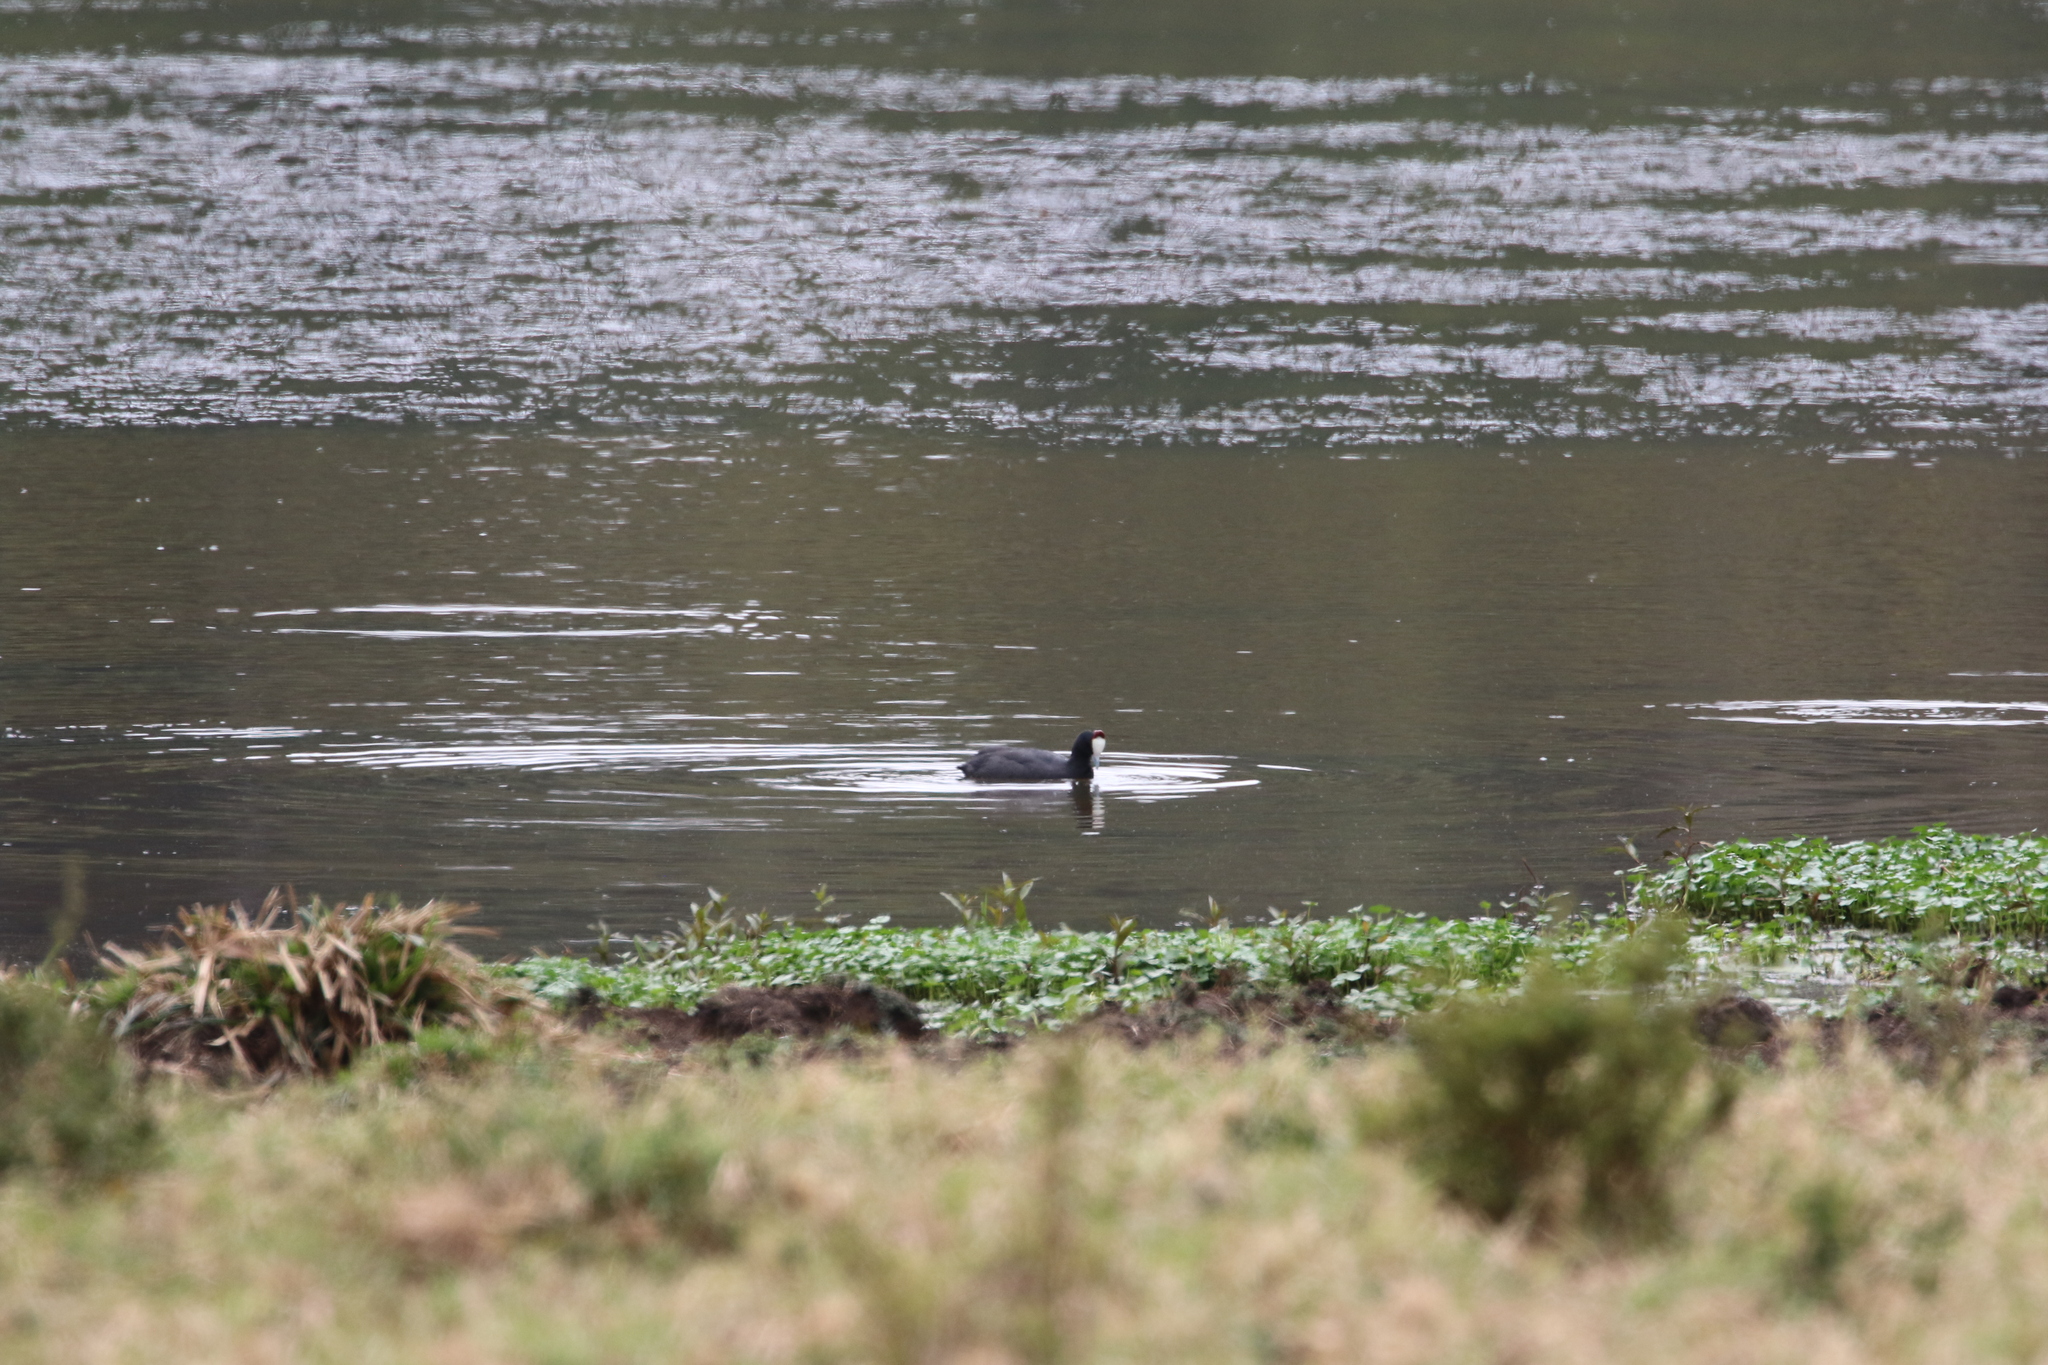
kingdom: Animalia
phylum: Chordata
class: Aves
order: Gruiformes
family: Rallidae
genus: Fulica
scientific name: Fulica cristata
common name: Red-knobbed coot
